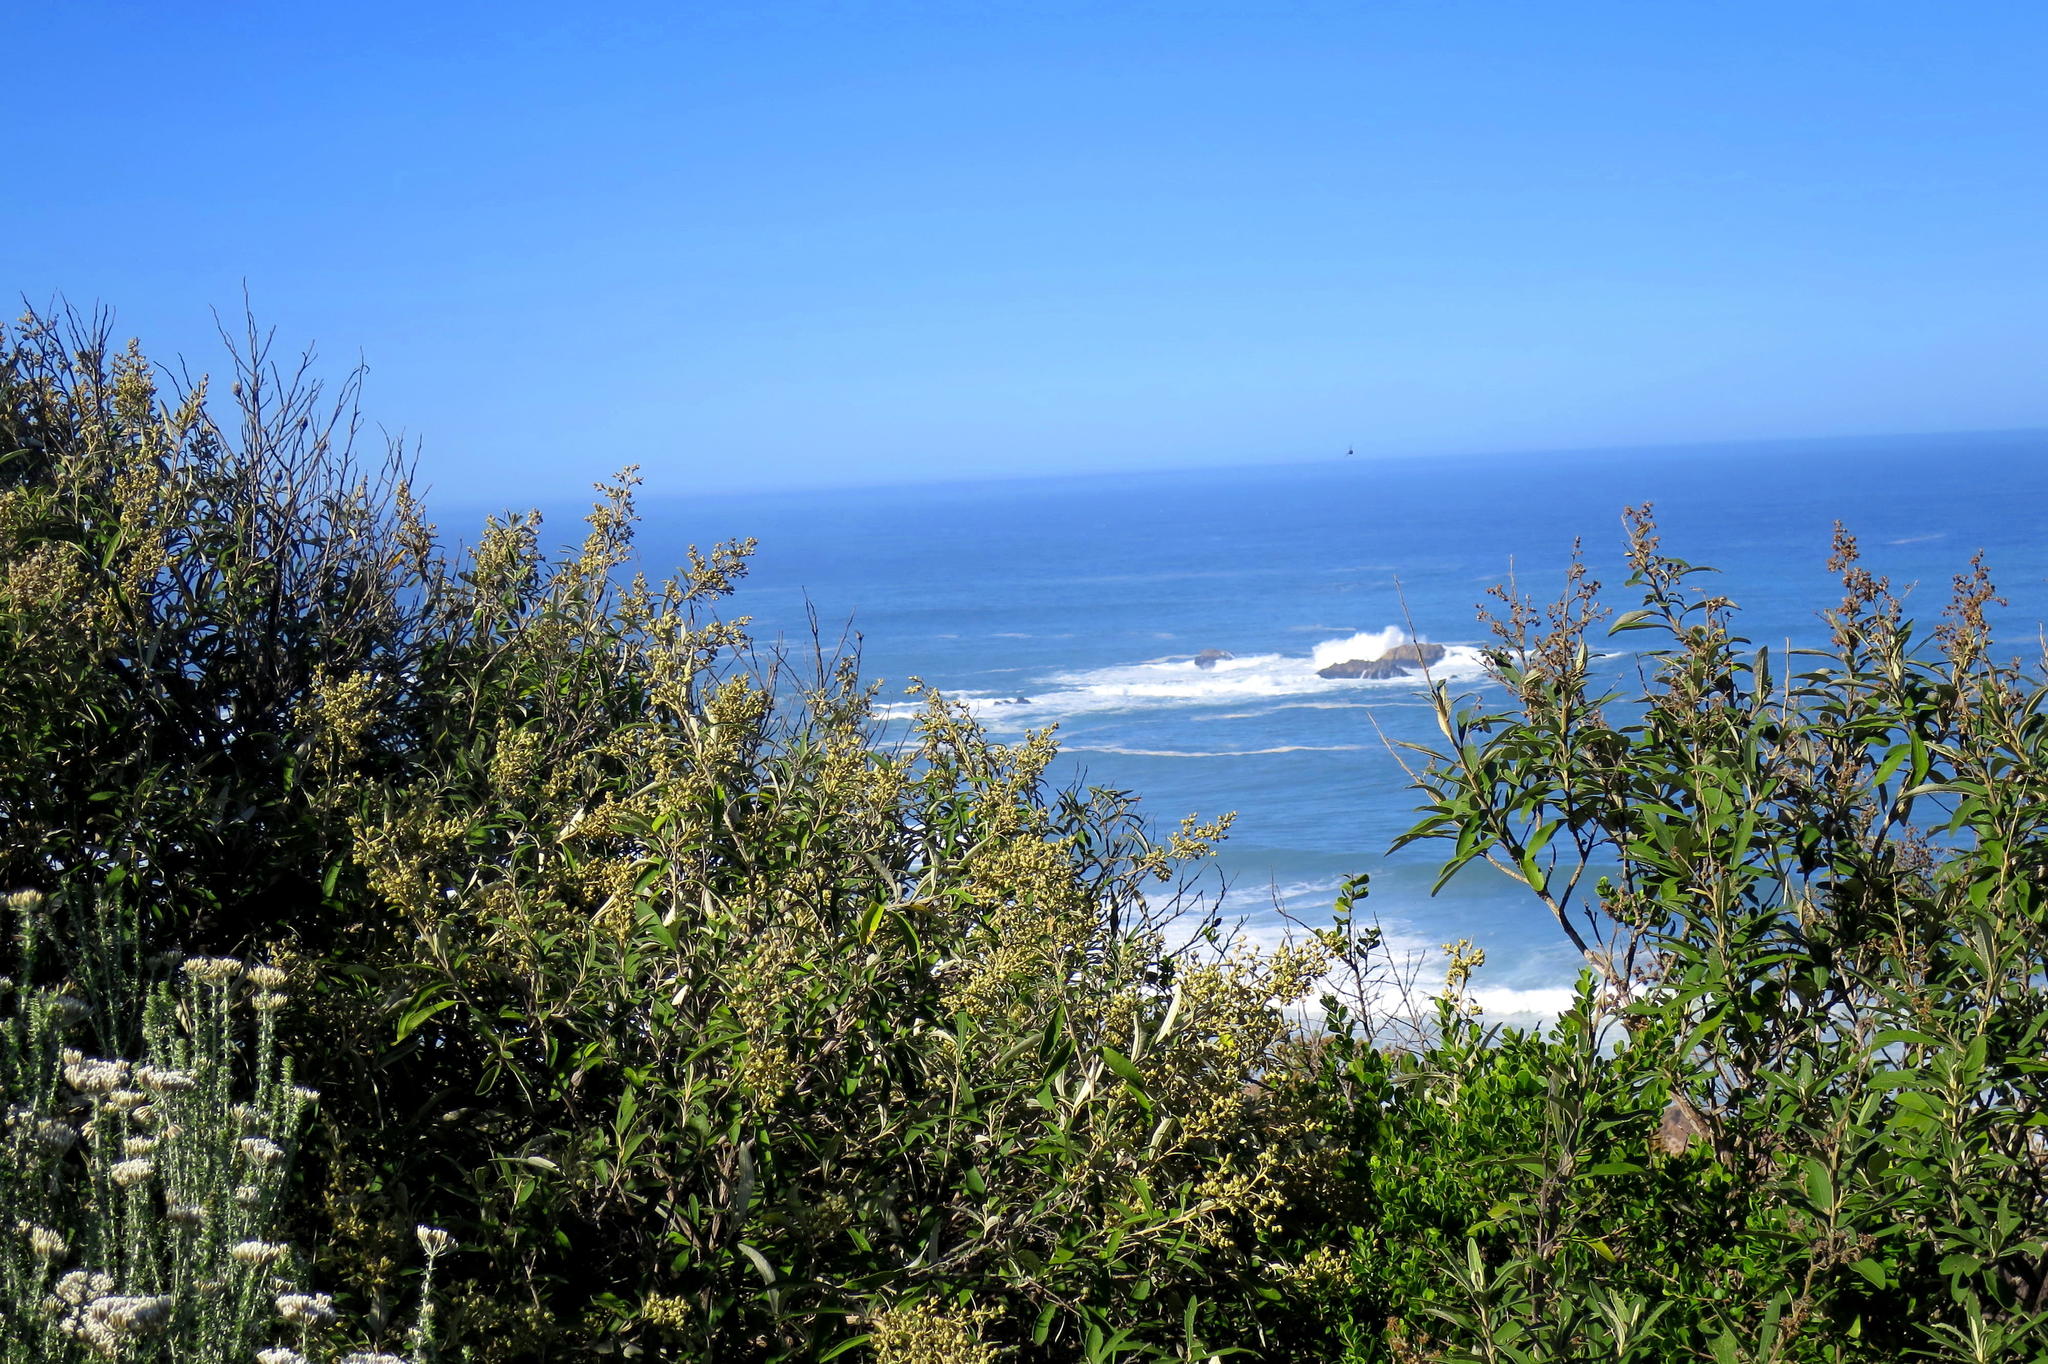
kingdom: Plantae
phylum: Tracheophyta
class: Magnoliopsida
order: Asterales
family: Asteraceae
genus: Tarchonanthus
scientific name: Tarchonanthus littoralis
